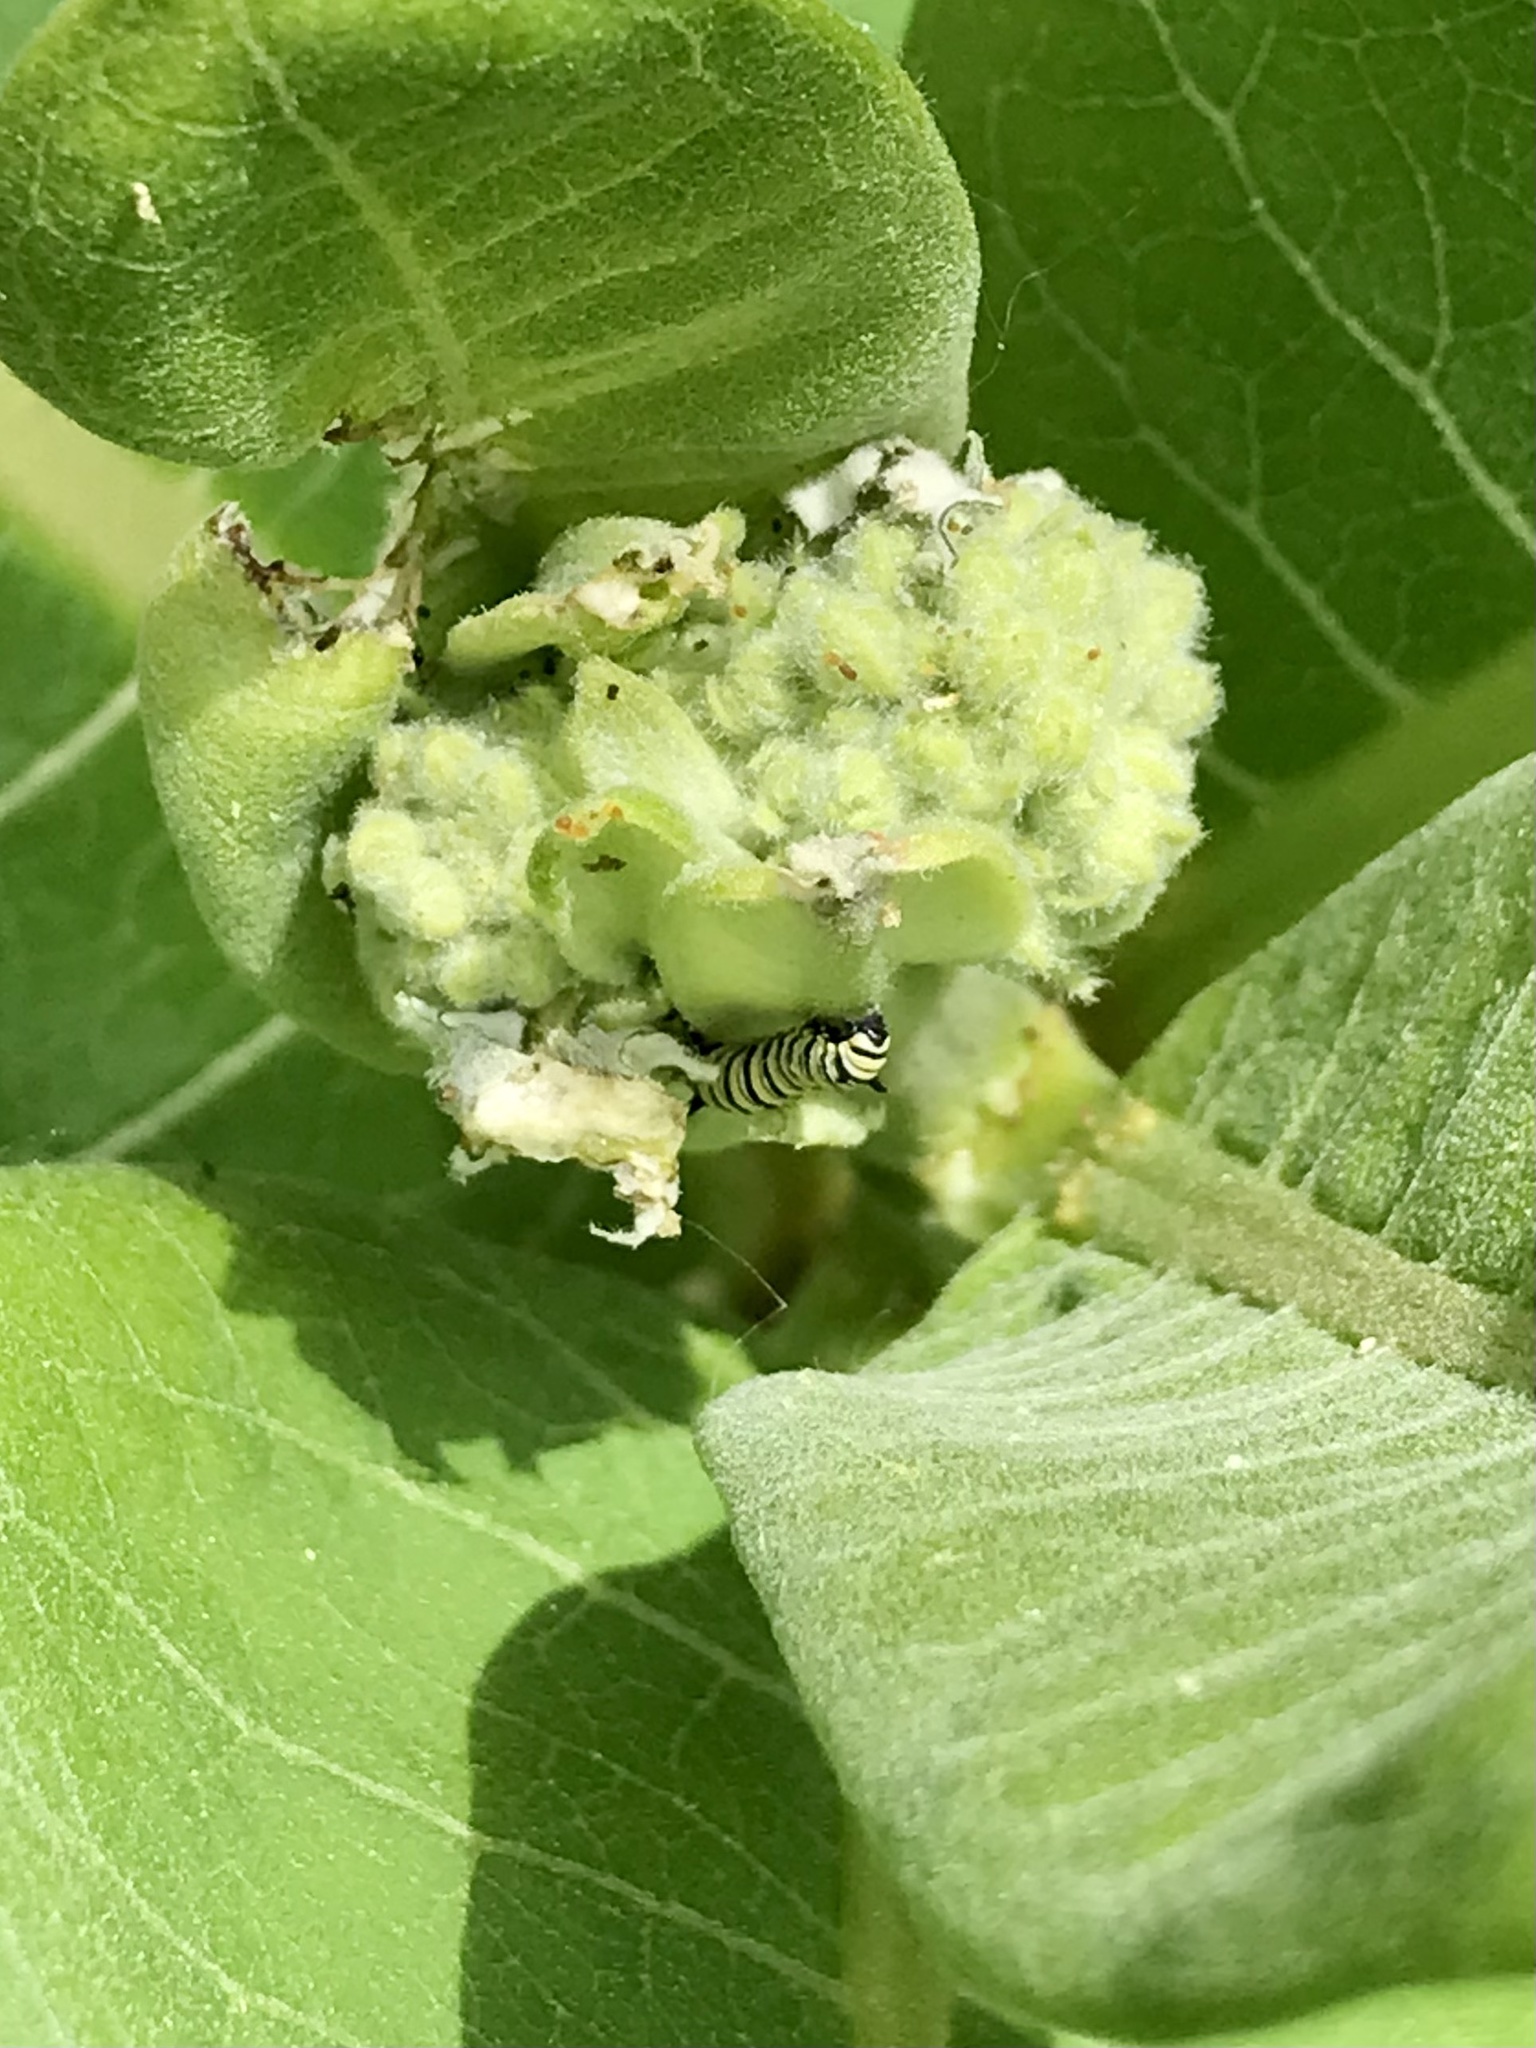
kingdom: Animalia
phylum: Arthropoda
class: Insecta
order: Lepidoptera
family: Nymphalidae
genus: Danaus
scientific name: Danaus plexippus
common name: Monarch
